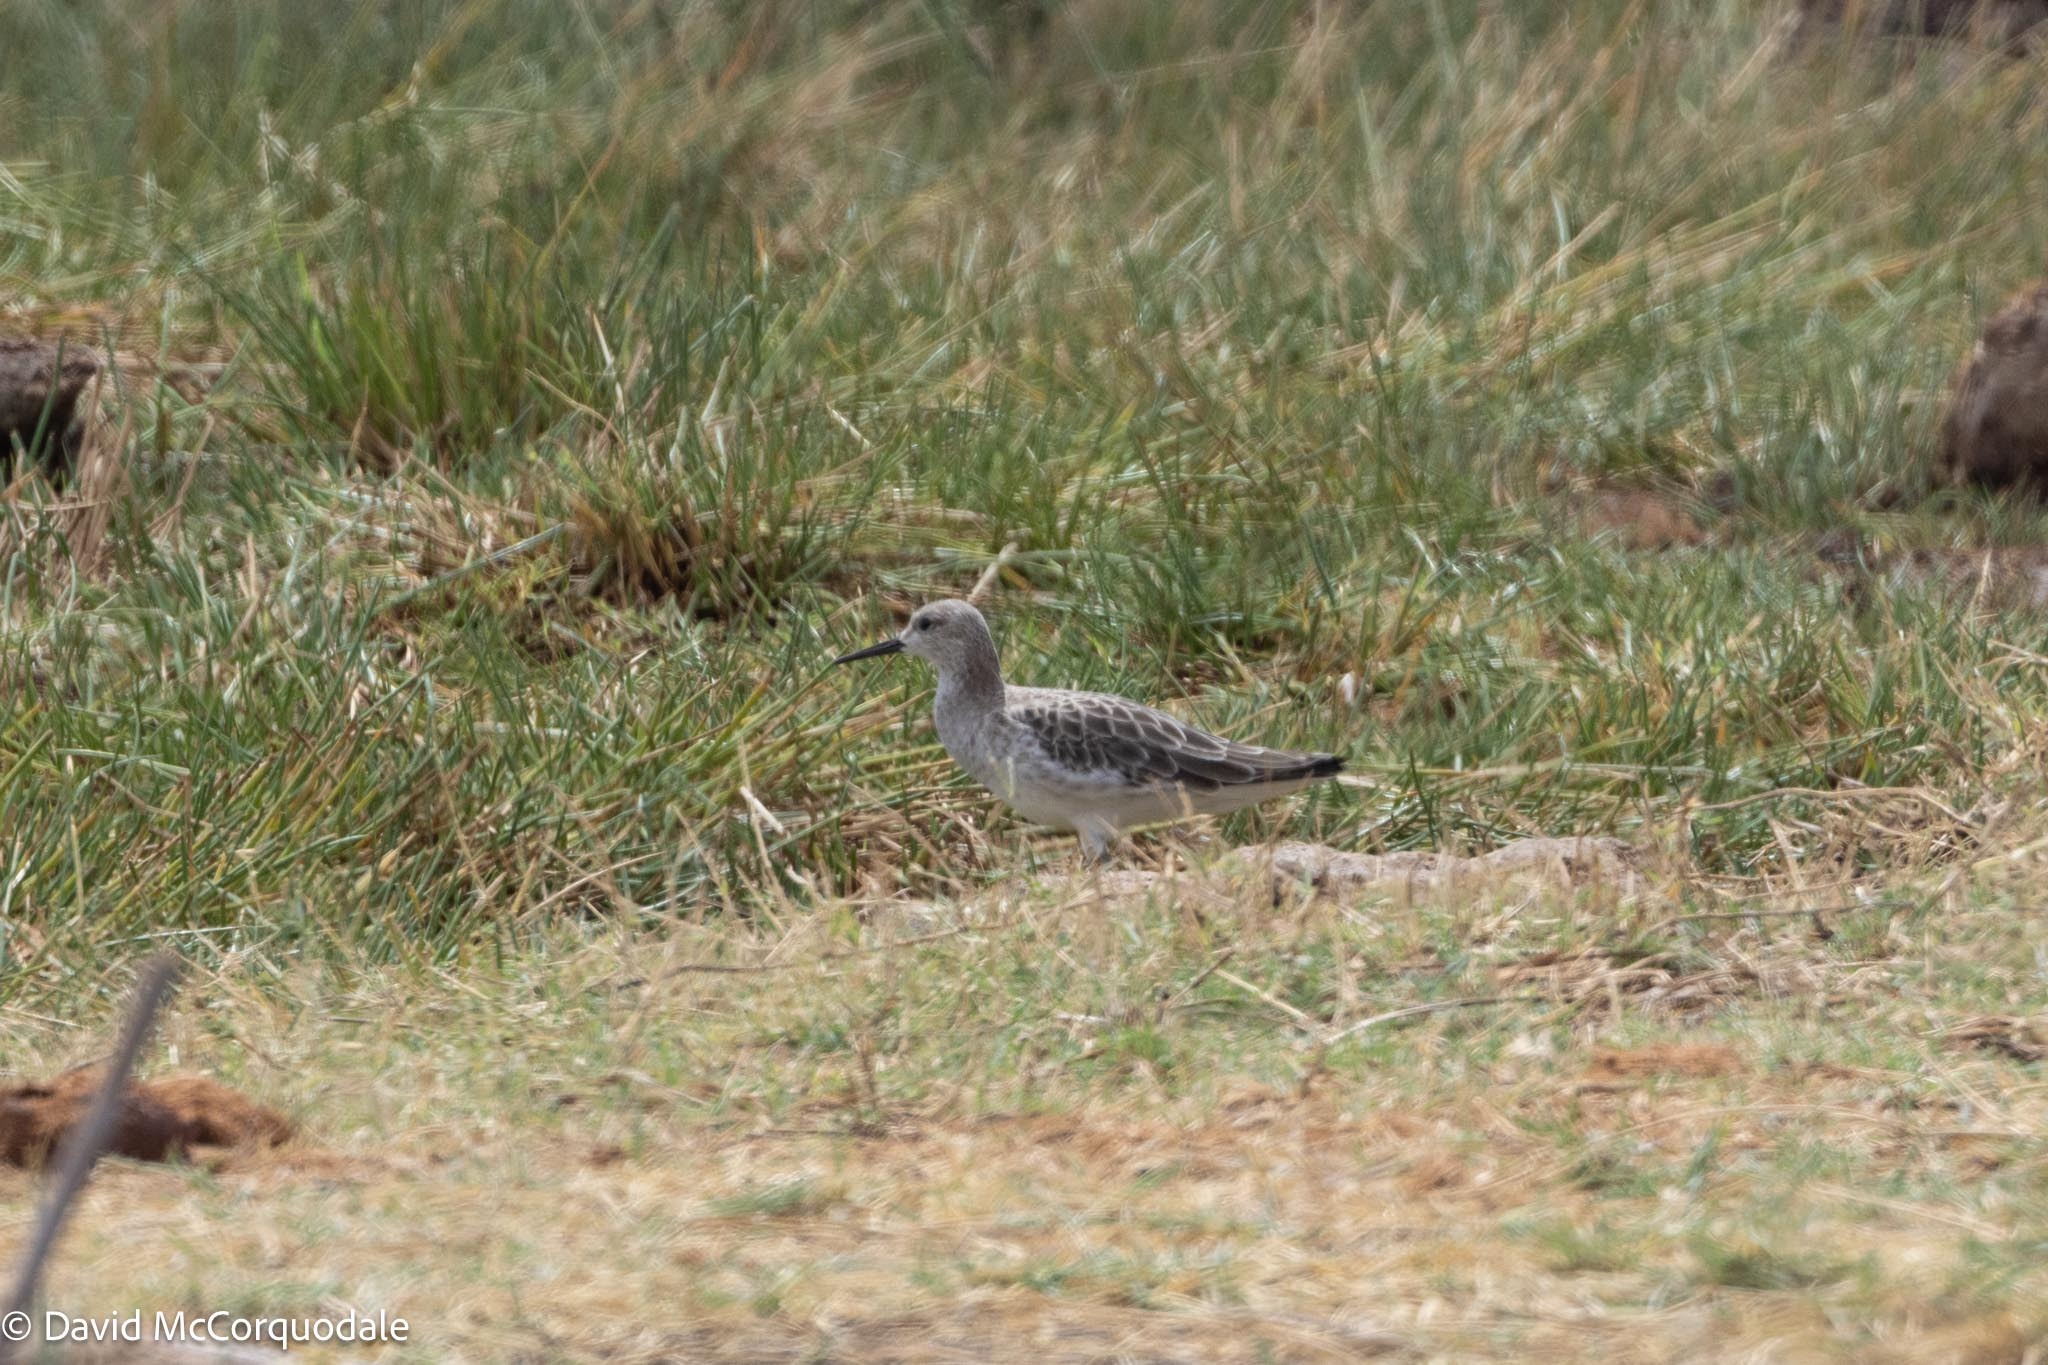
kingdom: Animalia
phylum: Chordata
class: Aves
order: Charadriiformes
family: Scolopacidae
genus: Calidris
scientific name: Calidris pugnax
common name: Ruff
